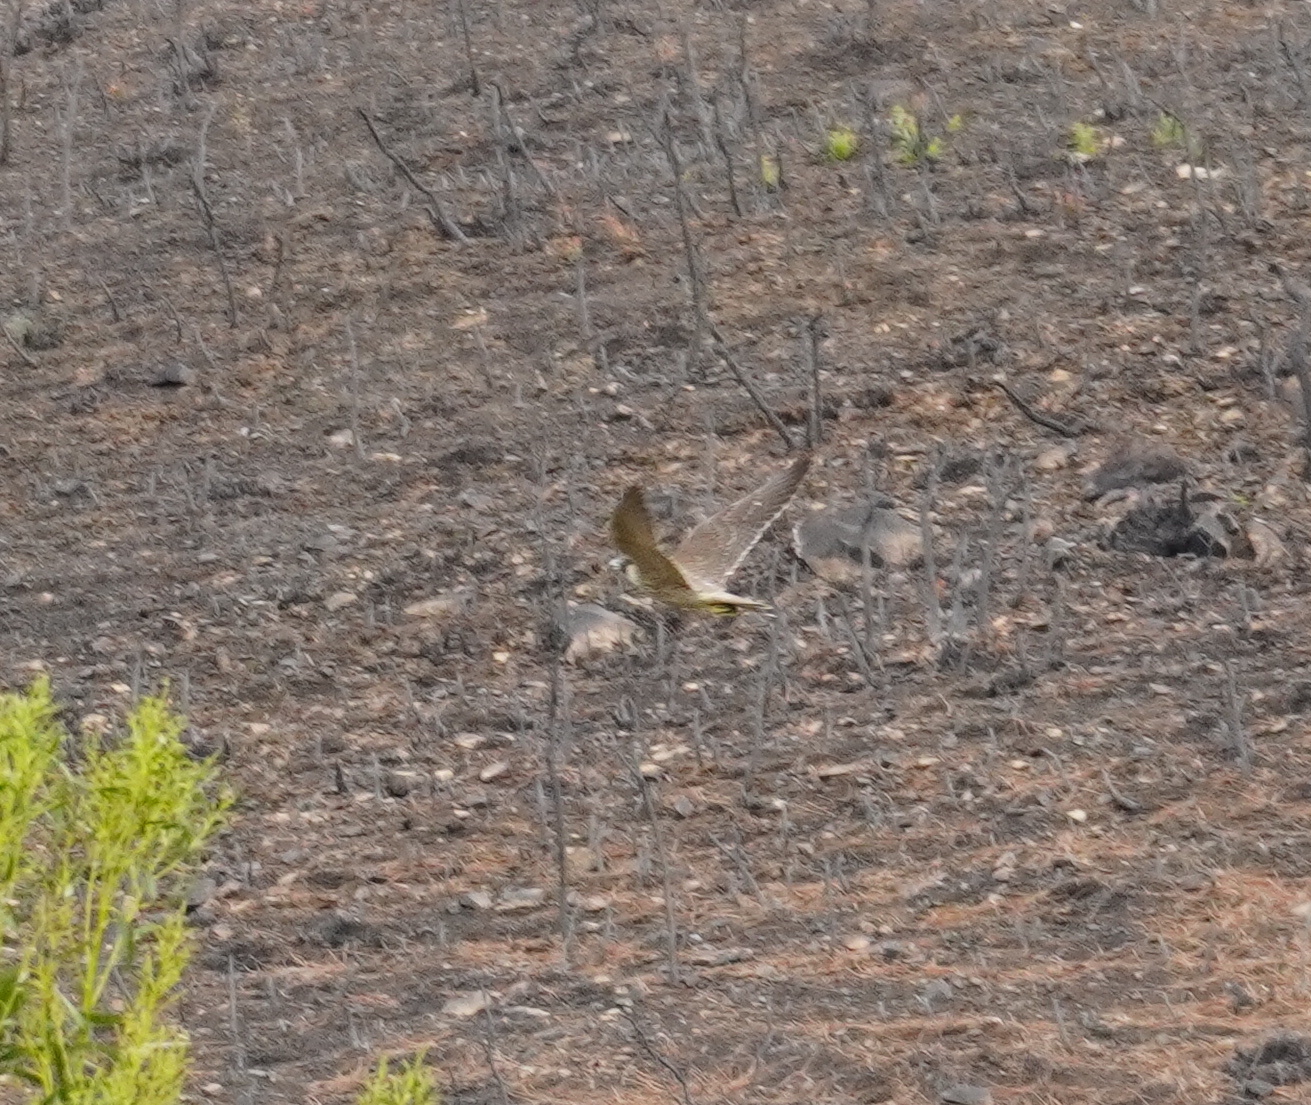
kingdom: Animalia
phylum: Chordata
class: Aves
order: Falconiformes
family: Falconidae
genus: Falco
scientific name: Falco peregrinus
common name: Peregrine falcon
